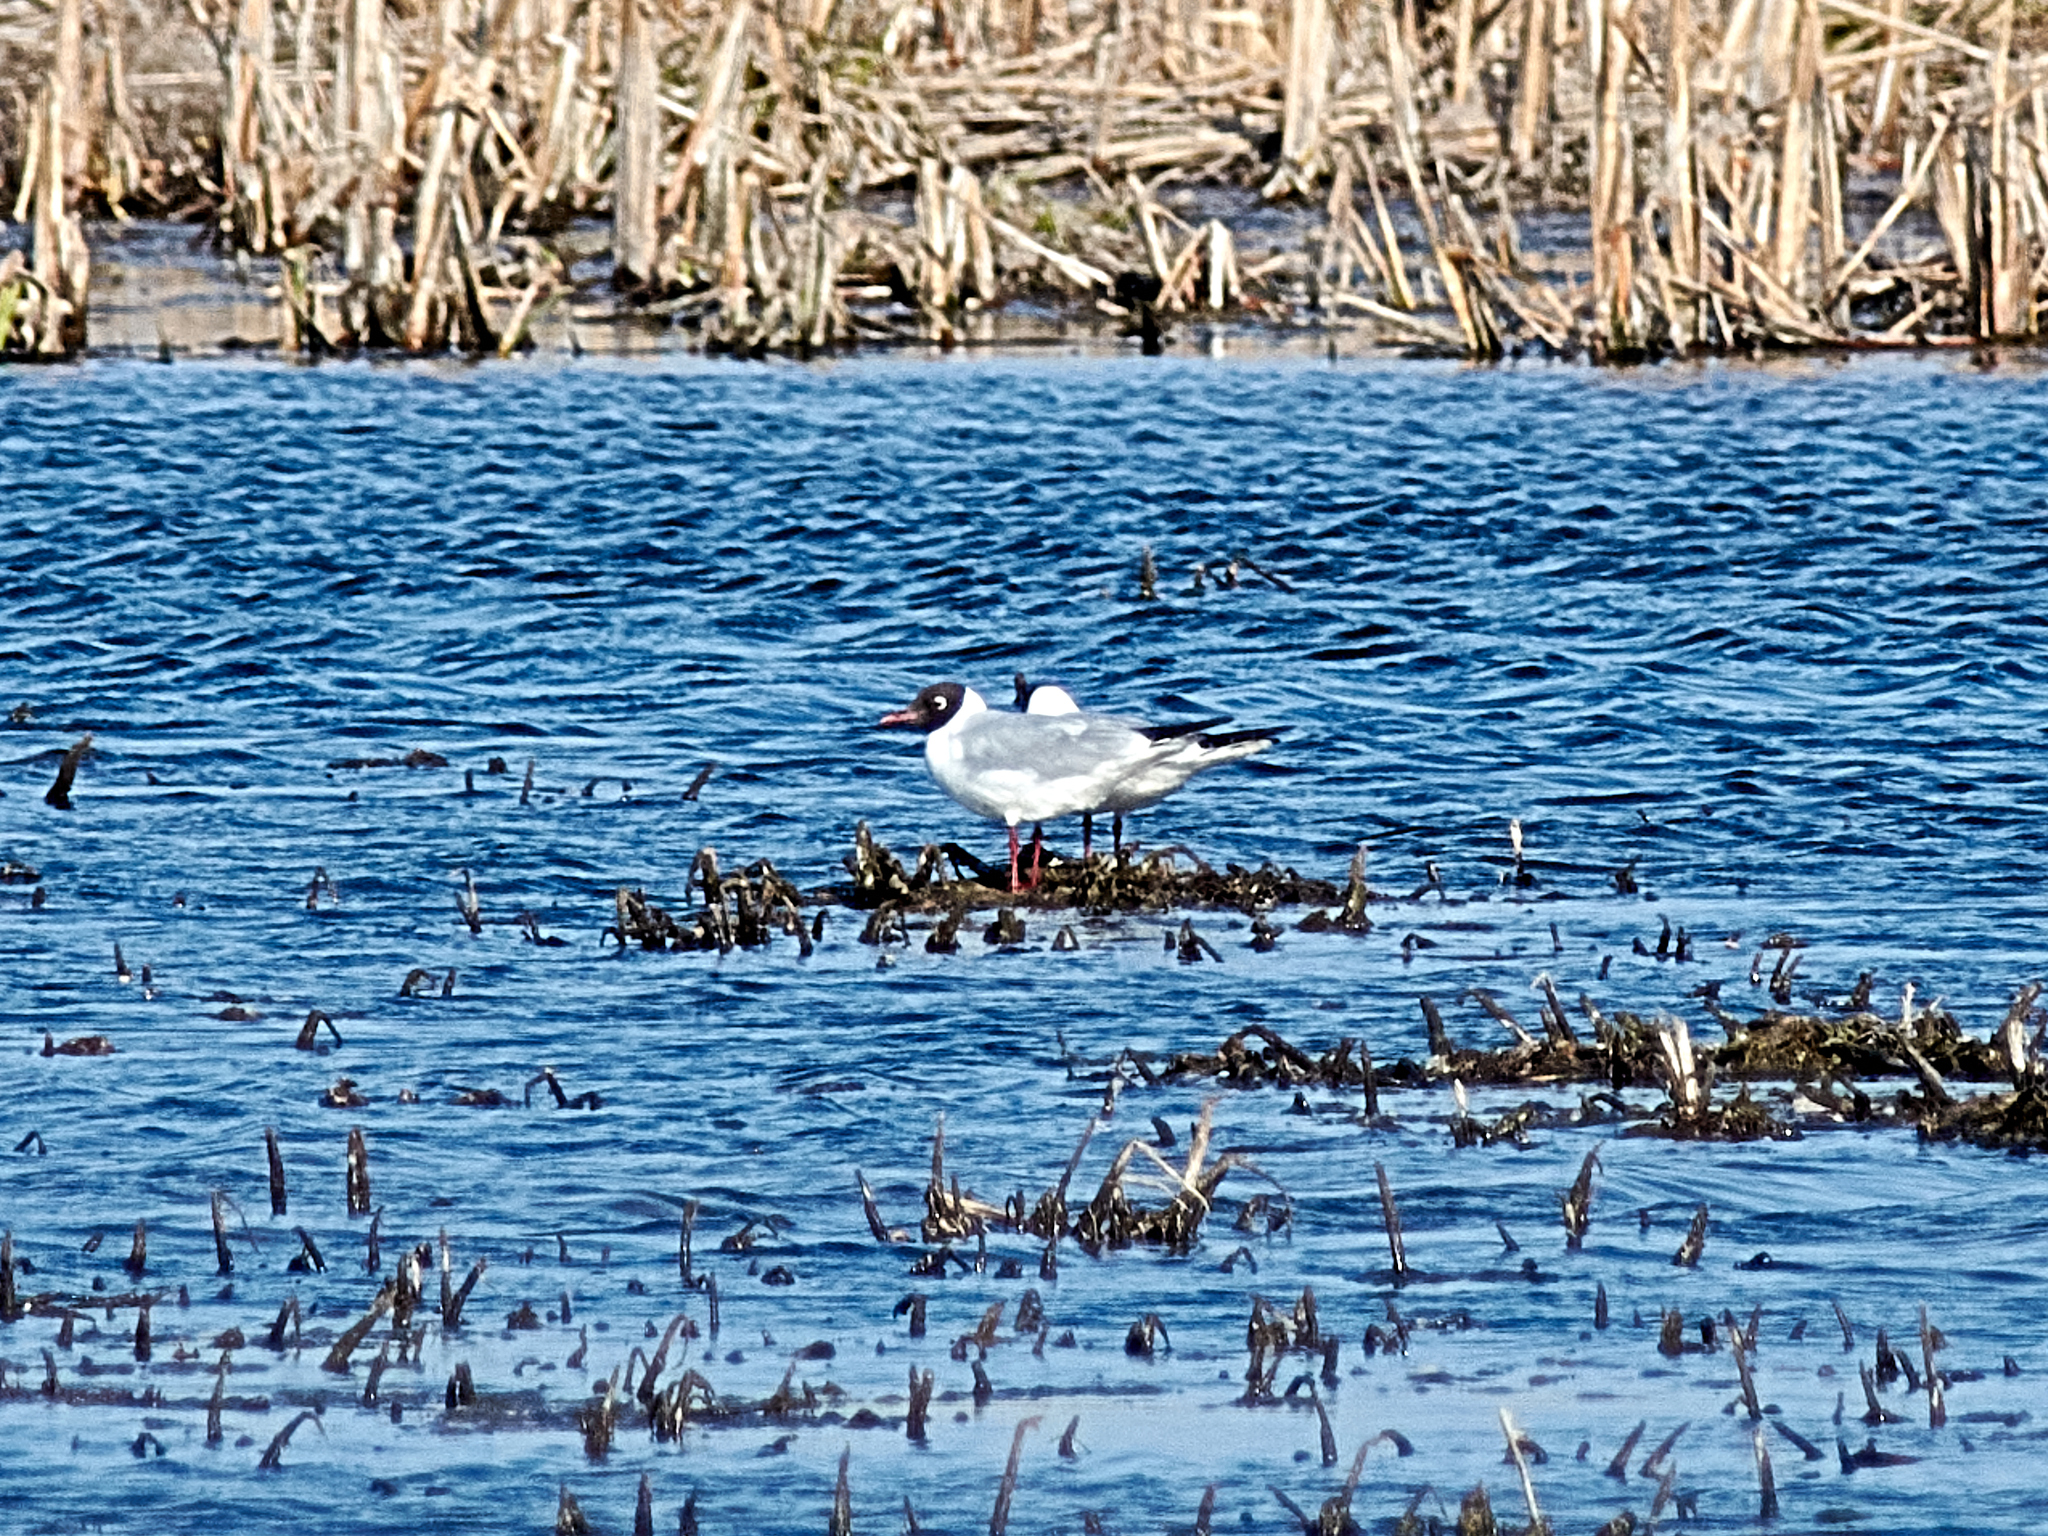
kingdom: Animalia
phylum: Chordata
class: Aves
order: Charadriiformes
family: Laridae
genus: Chroicocephalus
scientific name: Chroicocephalus ridibundus
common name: Black-headed gull
